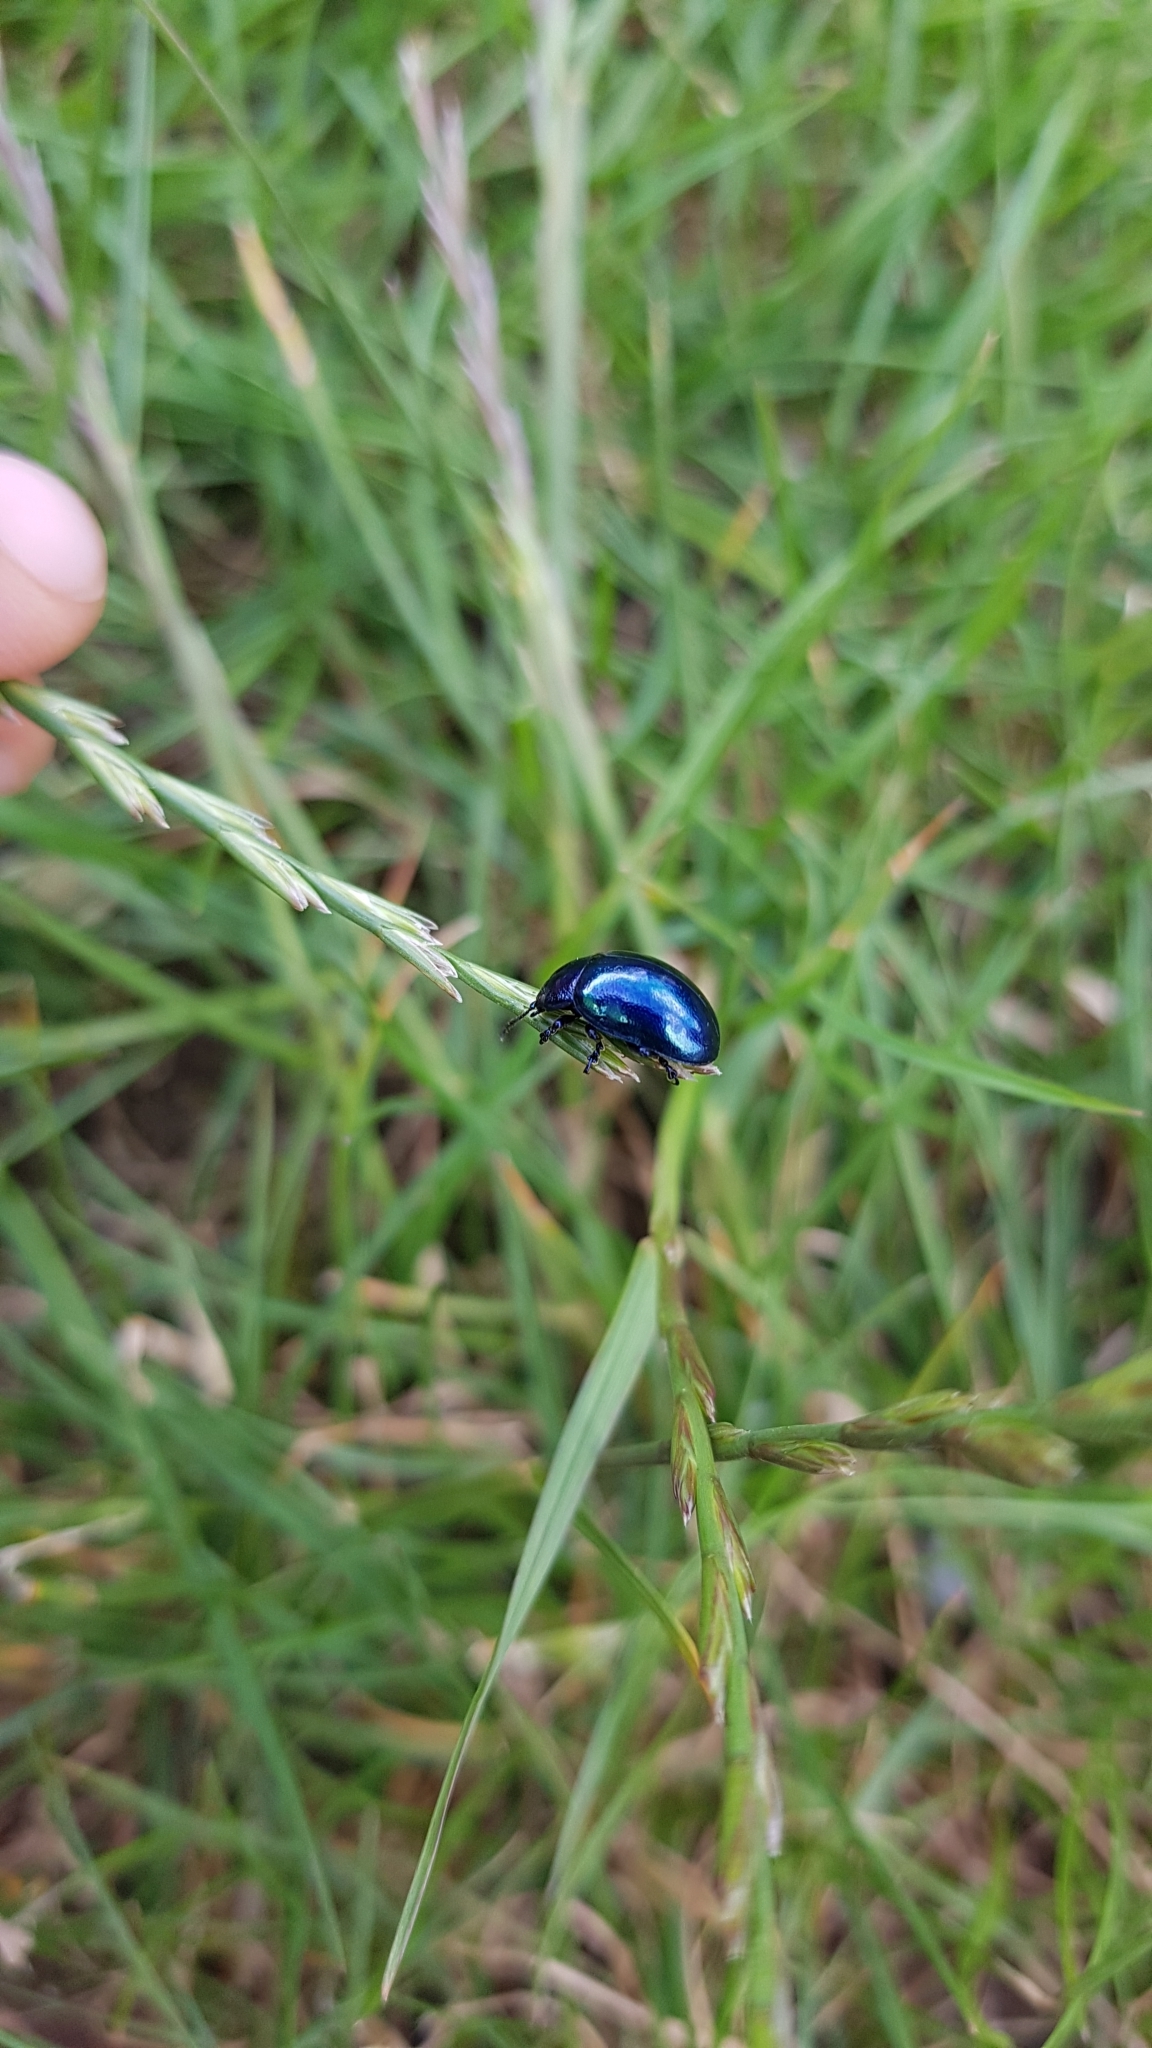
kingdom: Animalia
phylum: Arthropoda
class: Insecta
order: Coleoptera
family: Chrysomelidae
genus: Chrysolina
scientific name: Chrysolina coerulans
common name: Blue mint beetle
